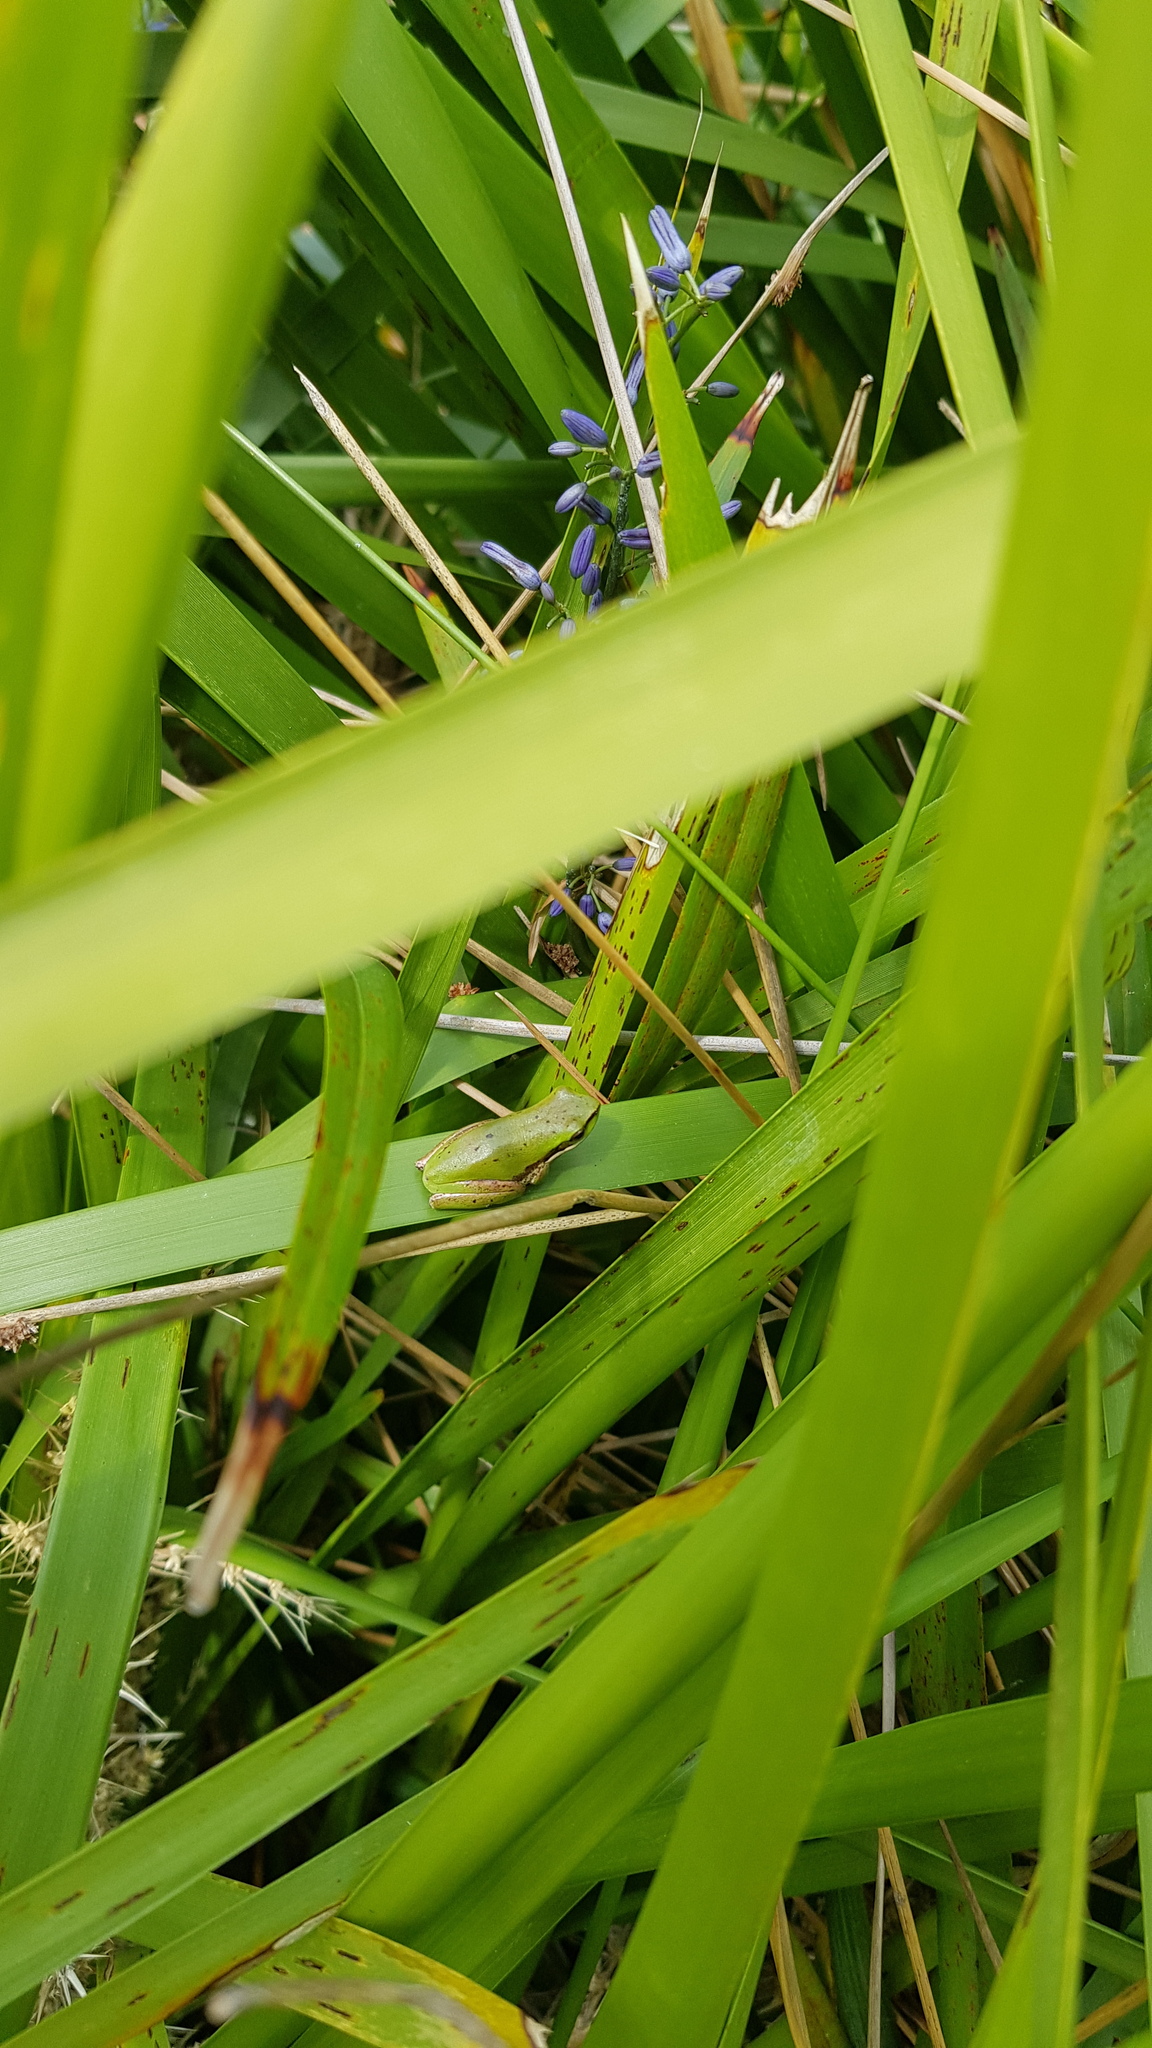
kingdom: Animalia
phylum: Chordata
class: Amphibia
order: Anura
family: Pelodryadidae
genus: Litoria
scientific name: Litoria fallax
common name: Eastern dwarf treefrog
